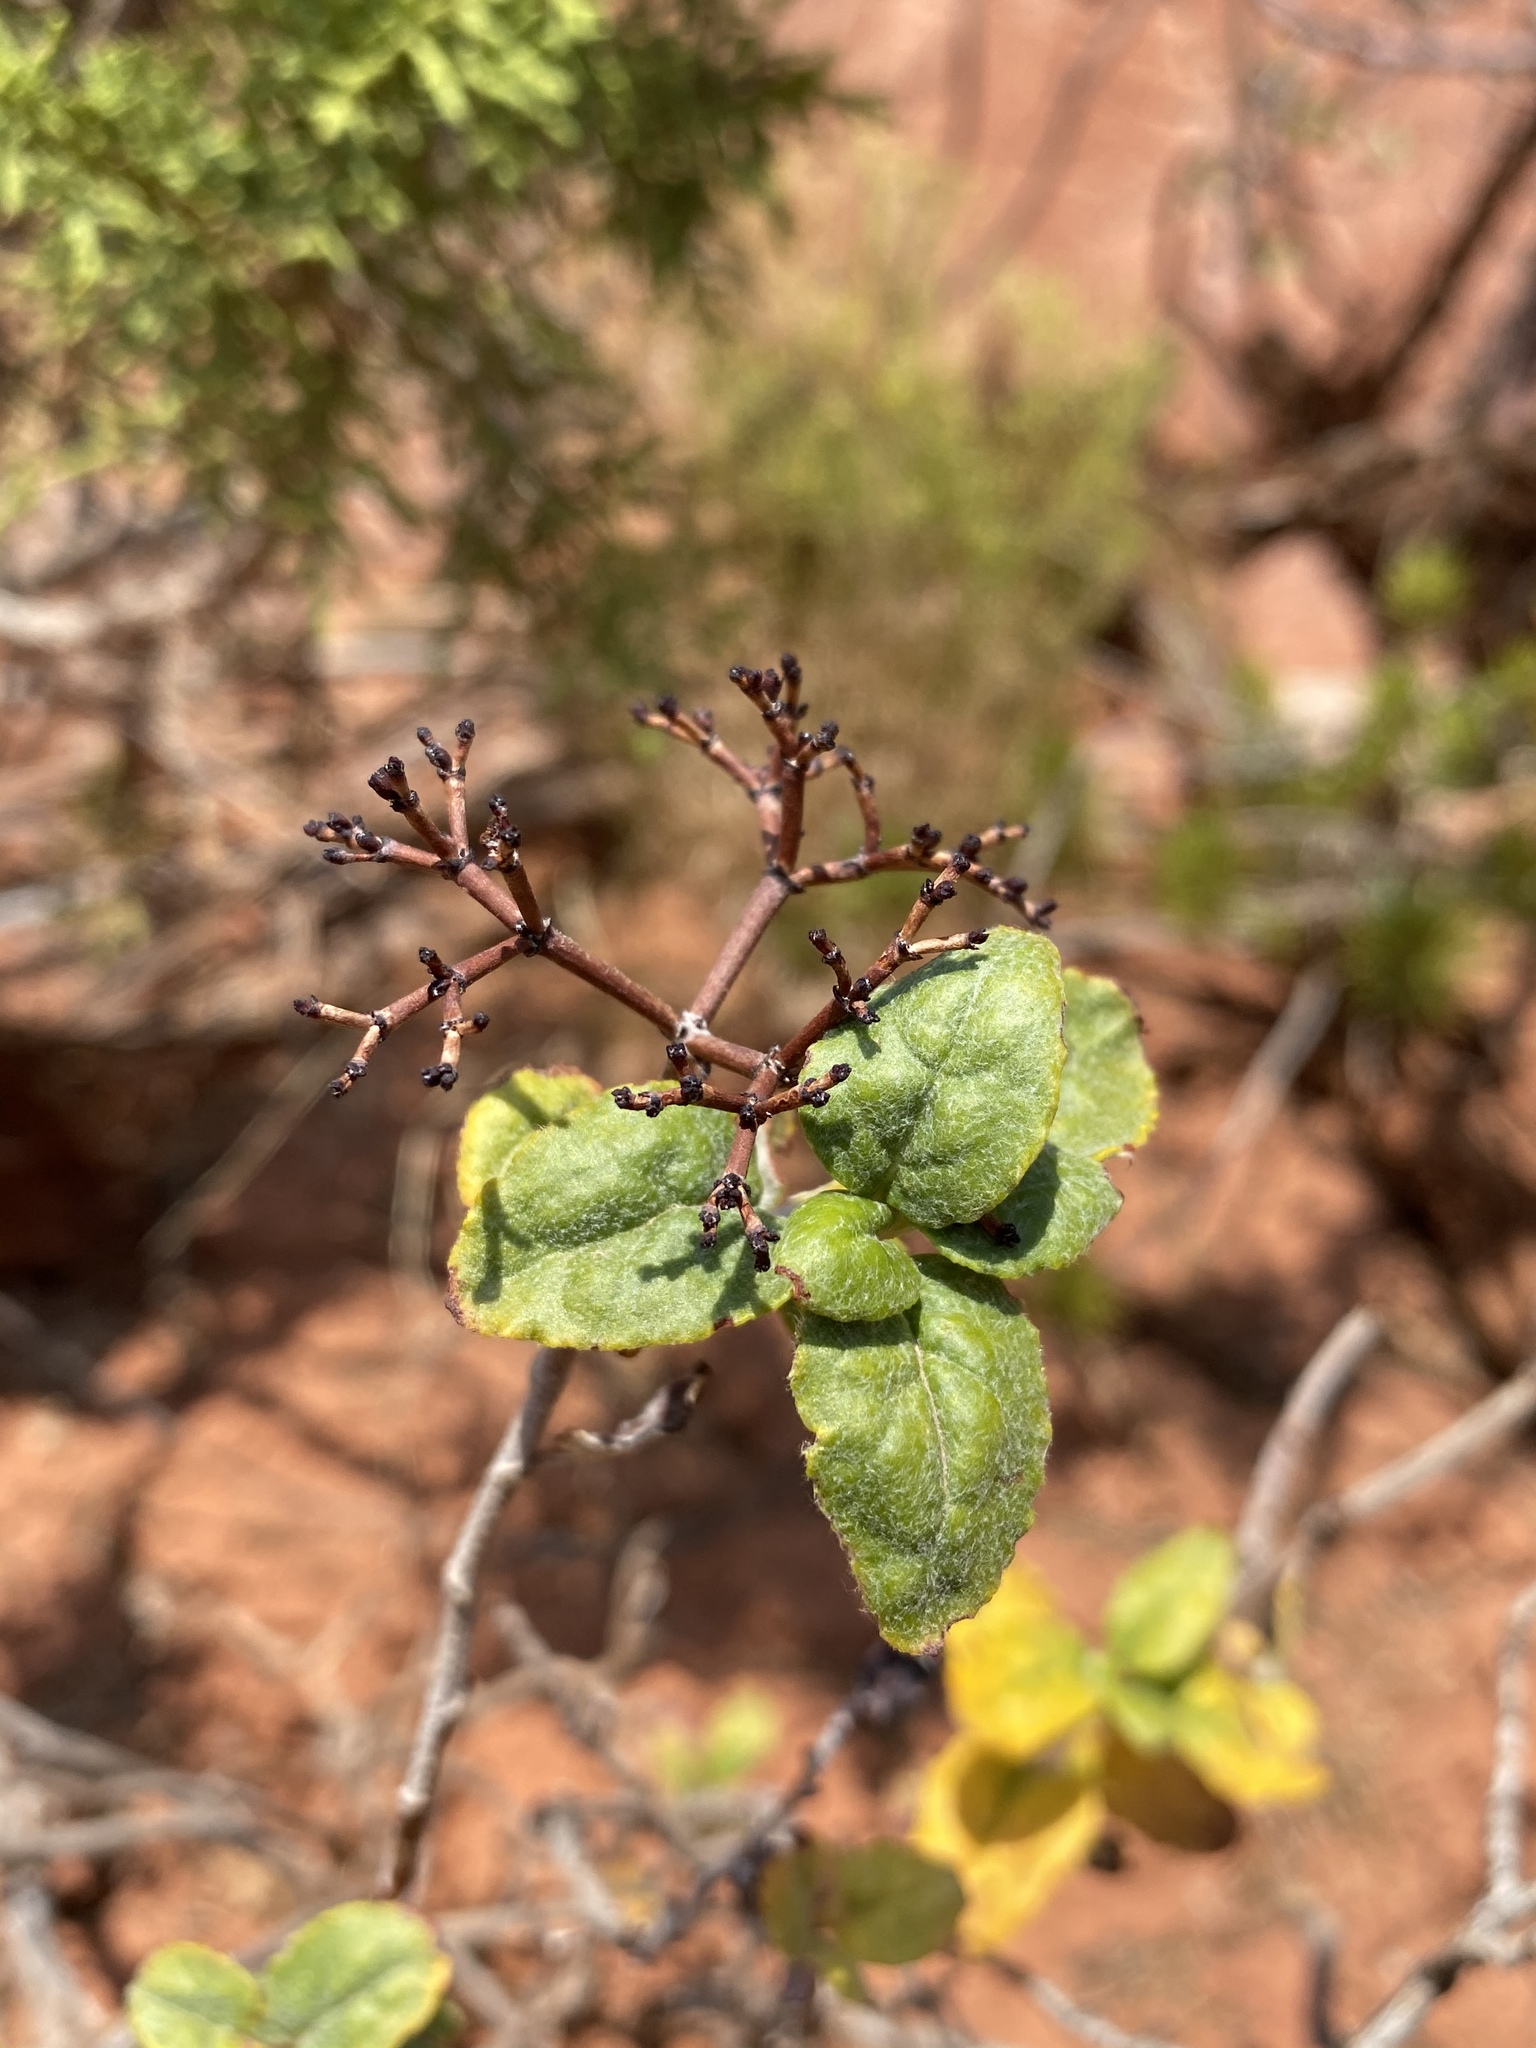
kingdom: Plantae
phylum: Tracheophyta
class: Magnoliopsida
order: Caryophyllales
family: Polygonaceae
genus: Eriogonum
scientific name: Eriogonum corymbosum
